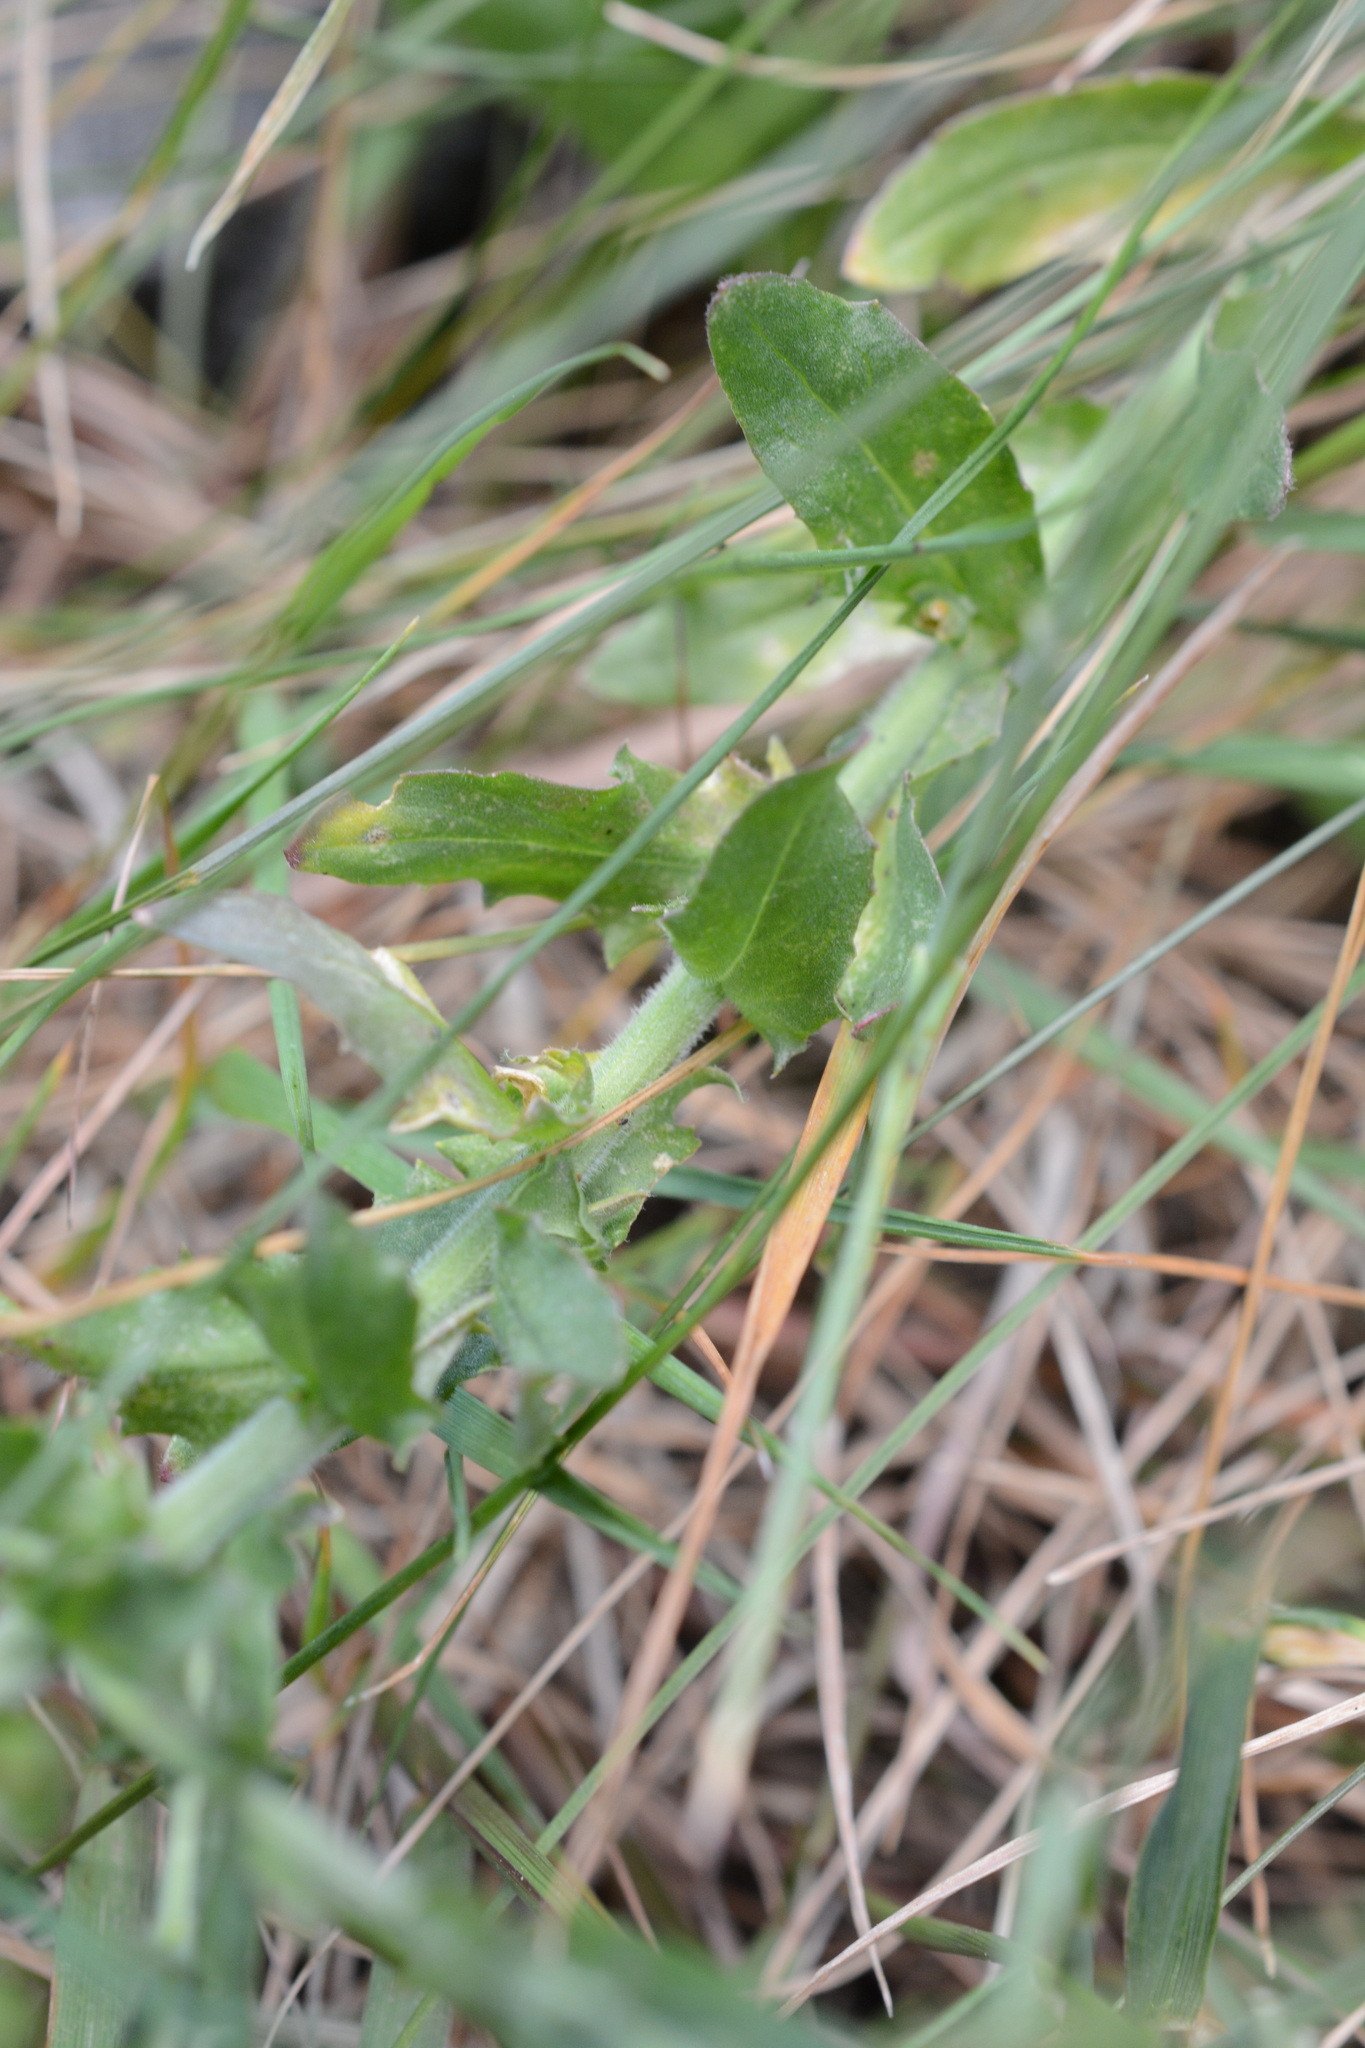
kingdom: Plantae
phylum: Tracheophyta
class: Magnoliopsida
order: Brassicales
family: Brassicaceae
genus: Lepidium
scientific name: Lepidium heterophyllum
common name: Smith's pepperwort
